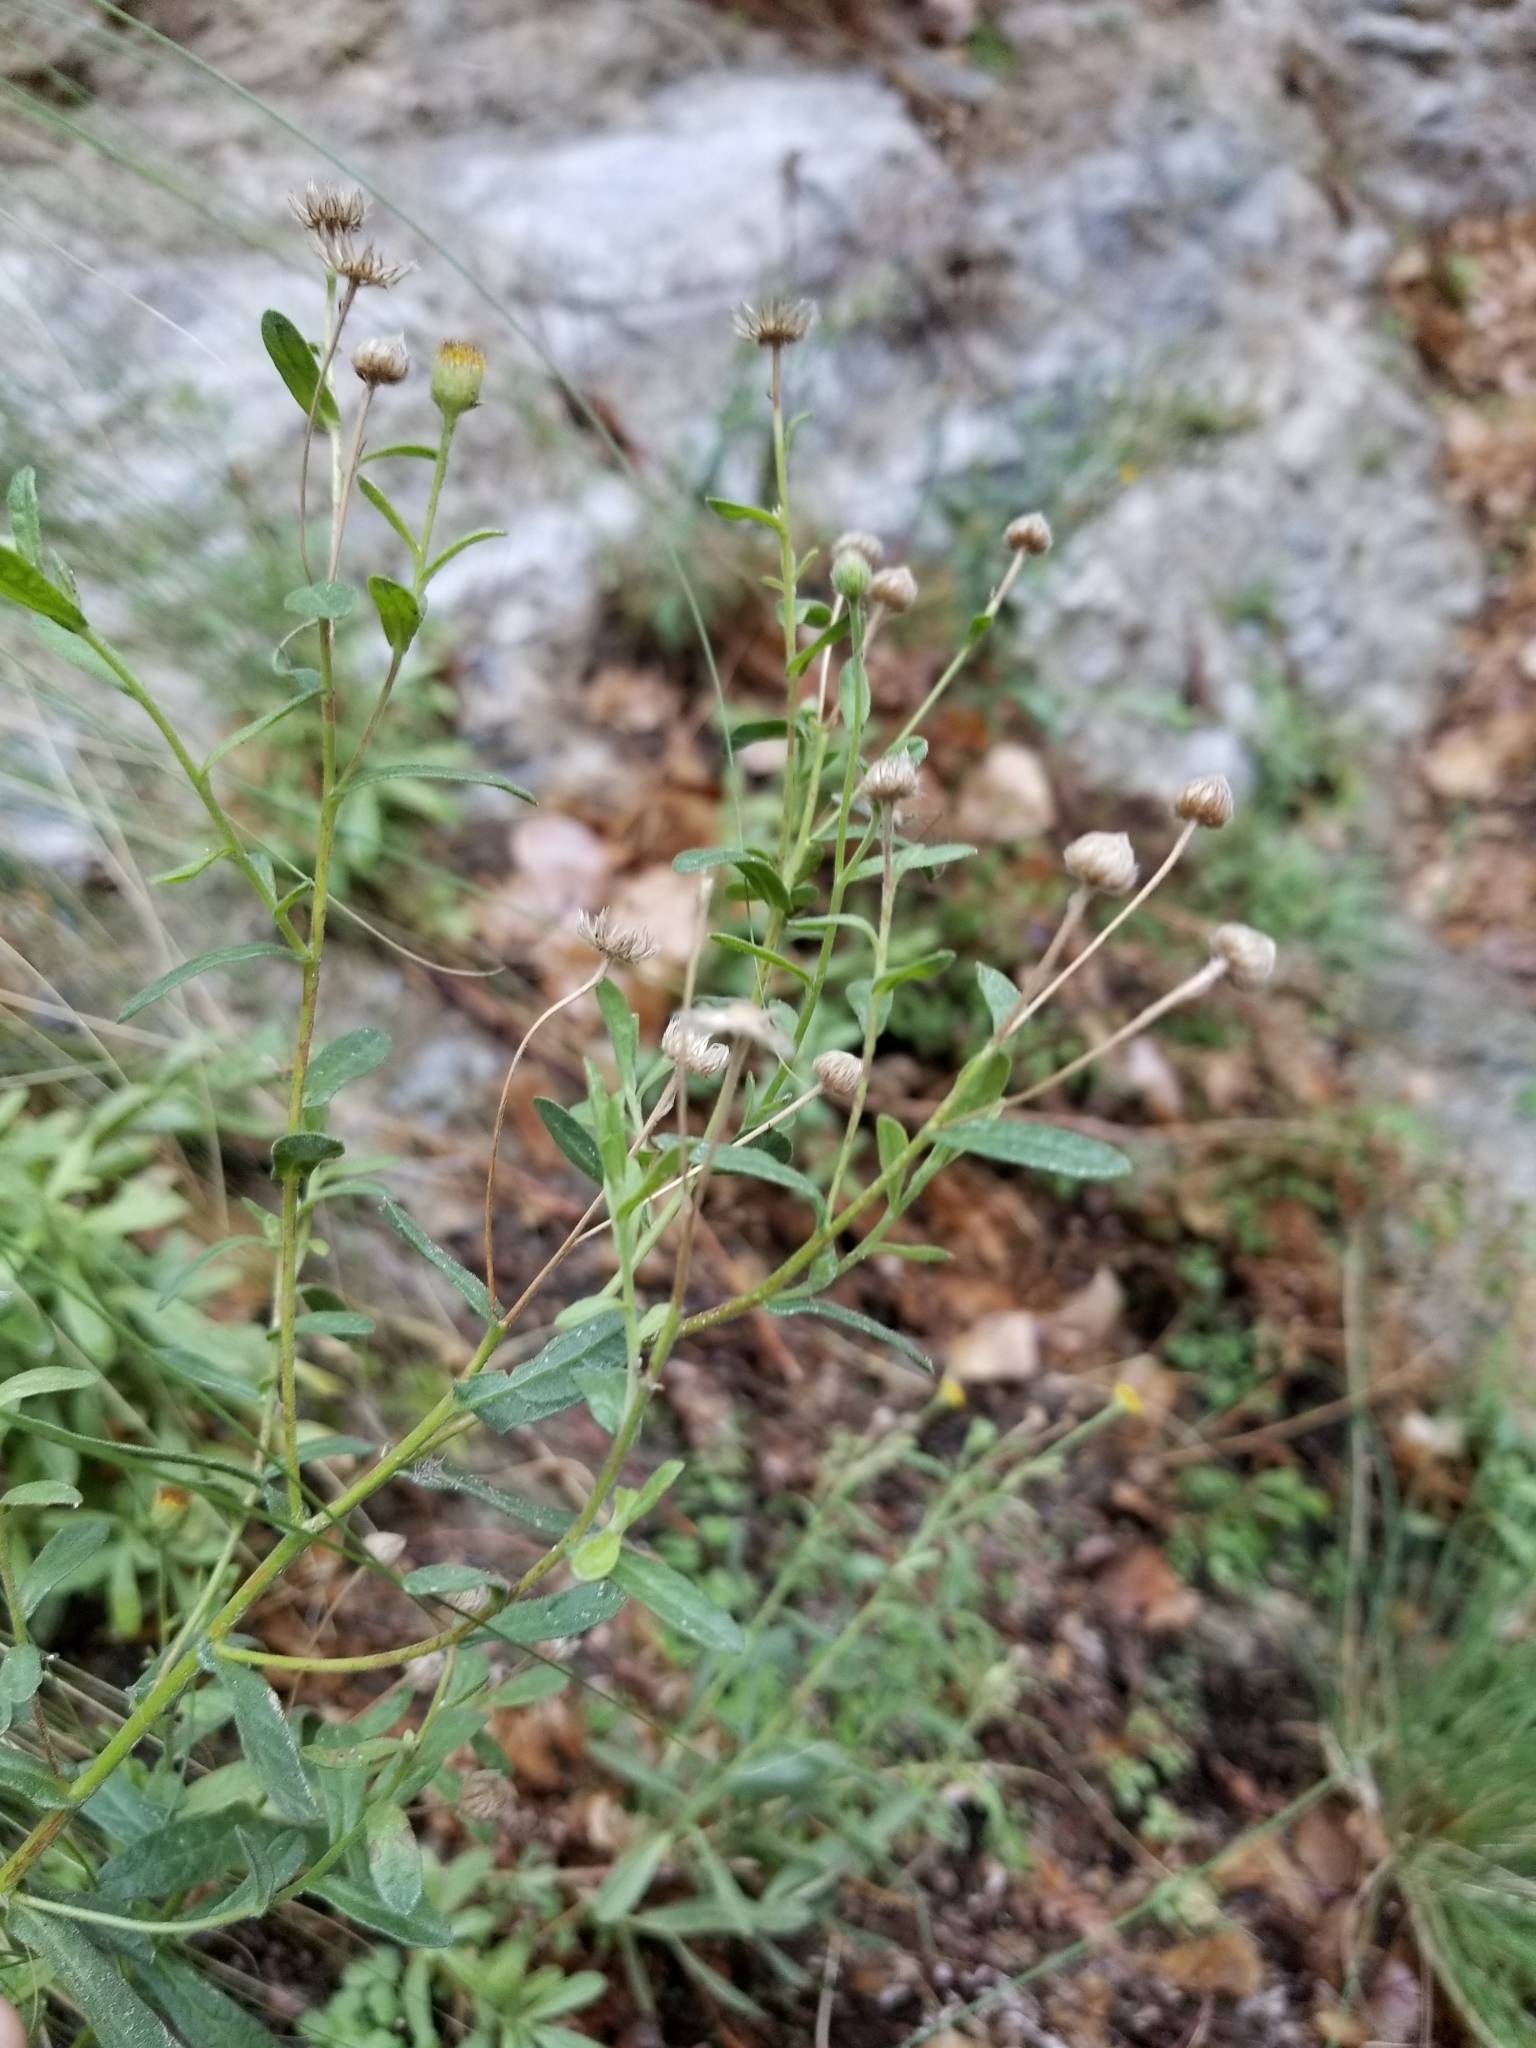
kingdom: Plantae
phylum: Tracheophyta
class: Magnoliopsida
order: Asterales
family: Asteraceae
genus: Pulicaria
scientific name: Pulicaria paludosa
